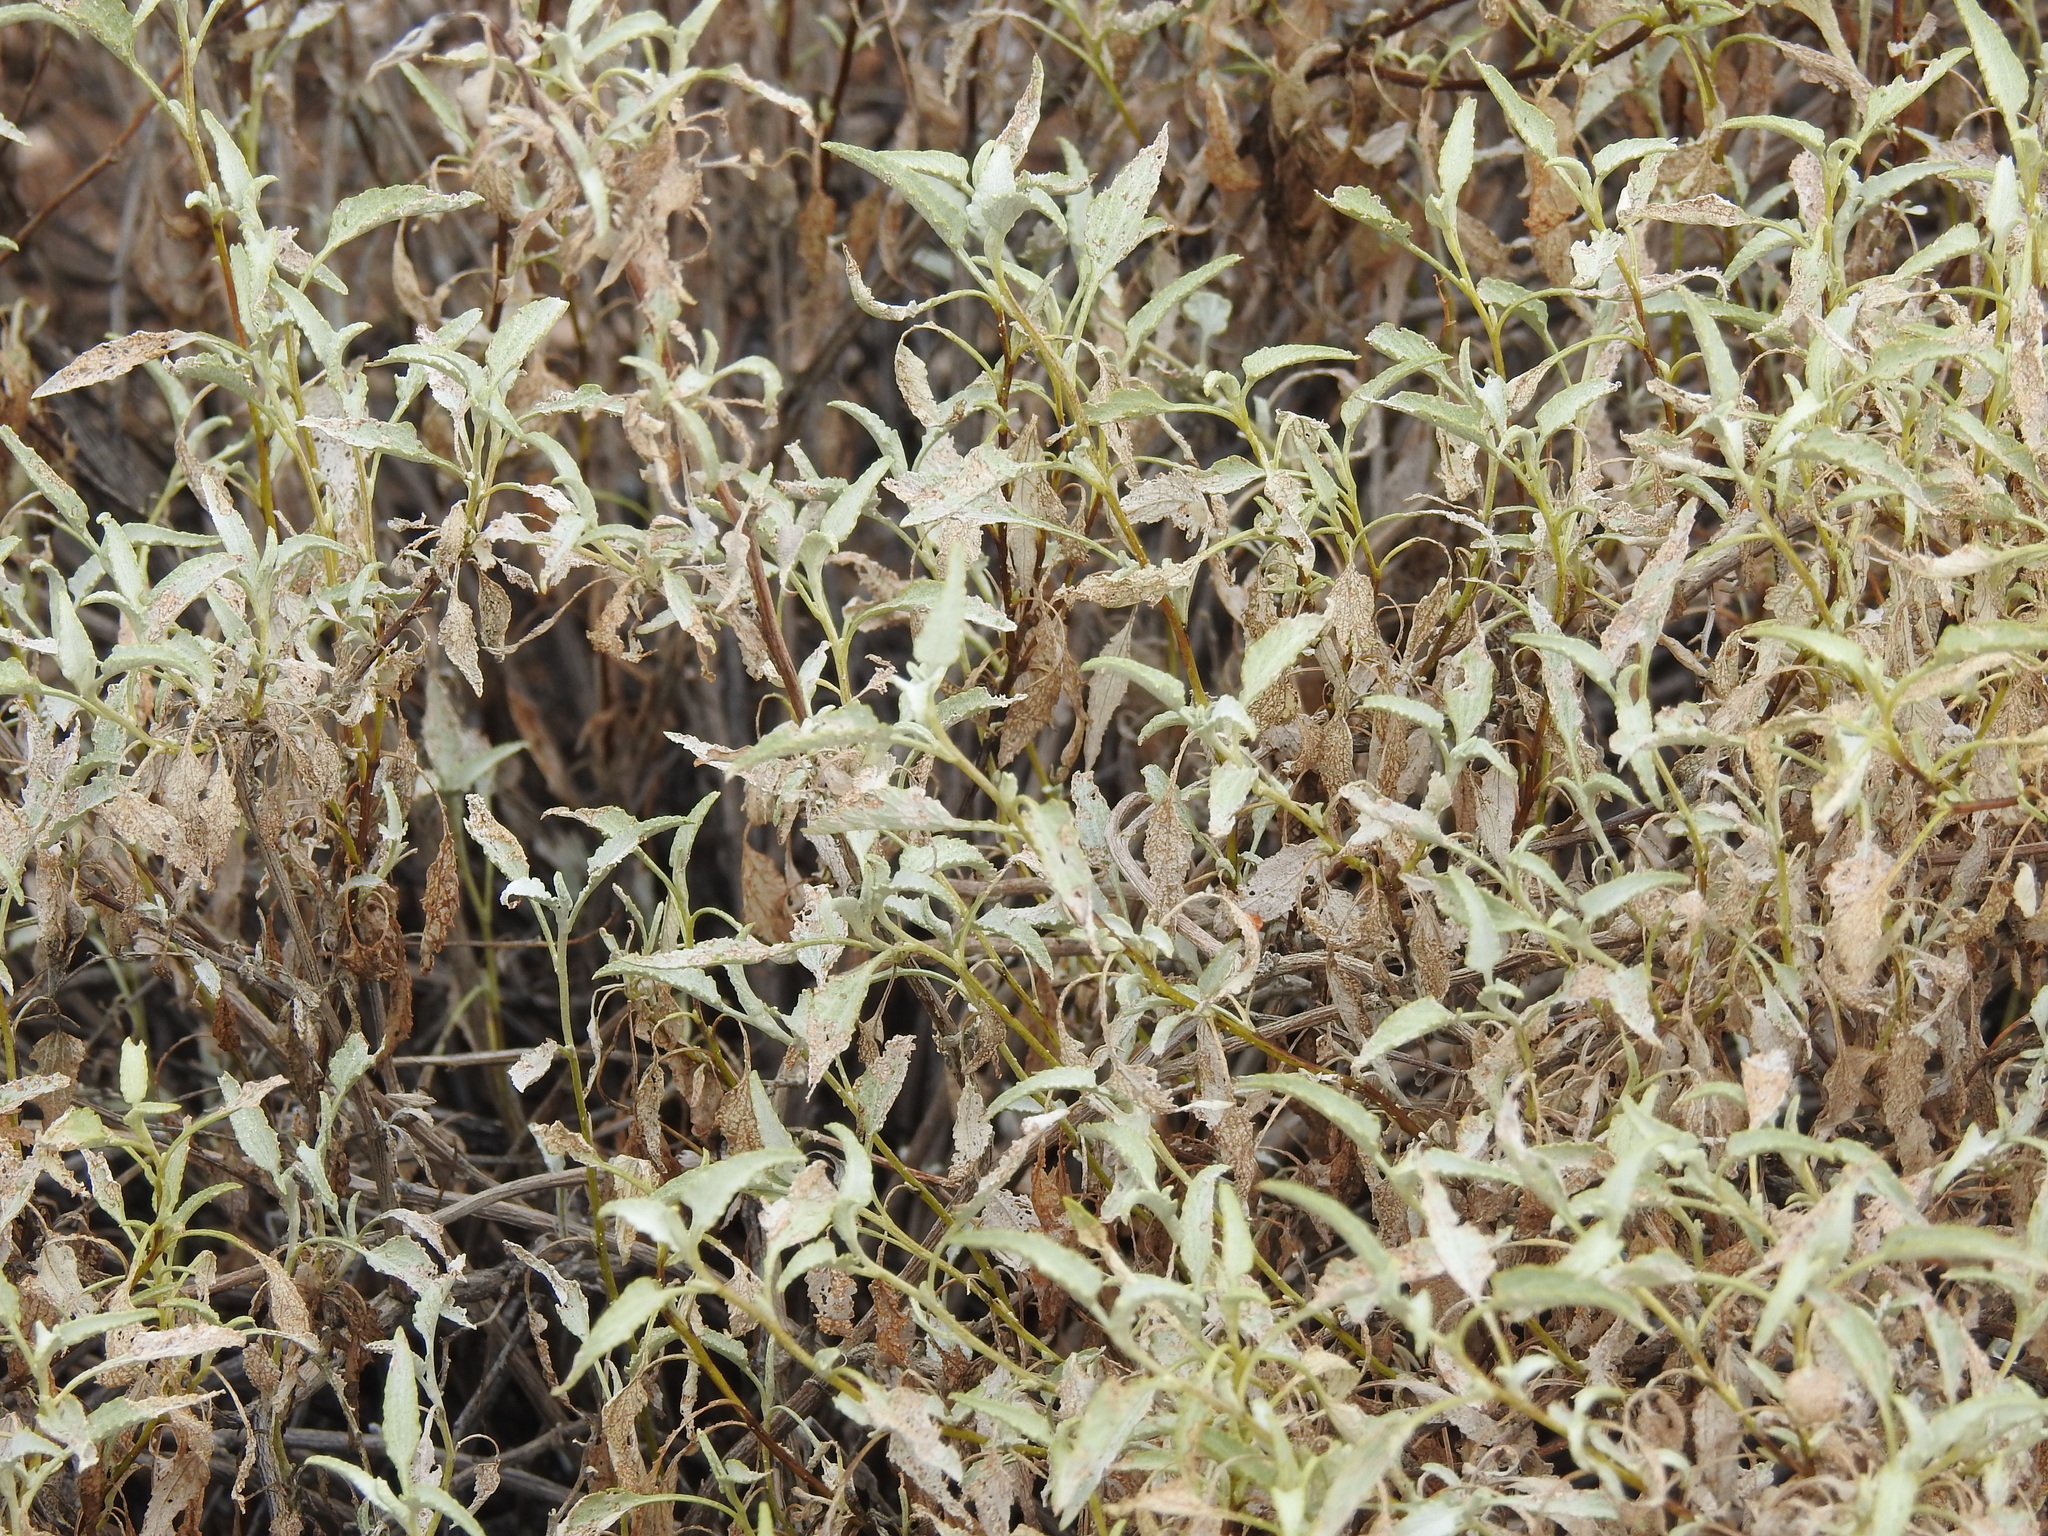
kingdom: Plantae
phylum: Tracheophyta
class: Magnoliopsida
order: Asterales
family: Asteraceae
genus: Ambrosia
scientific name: Ambrosia deltoidea
